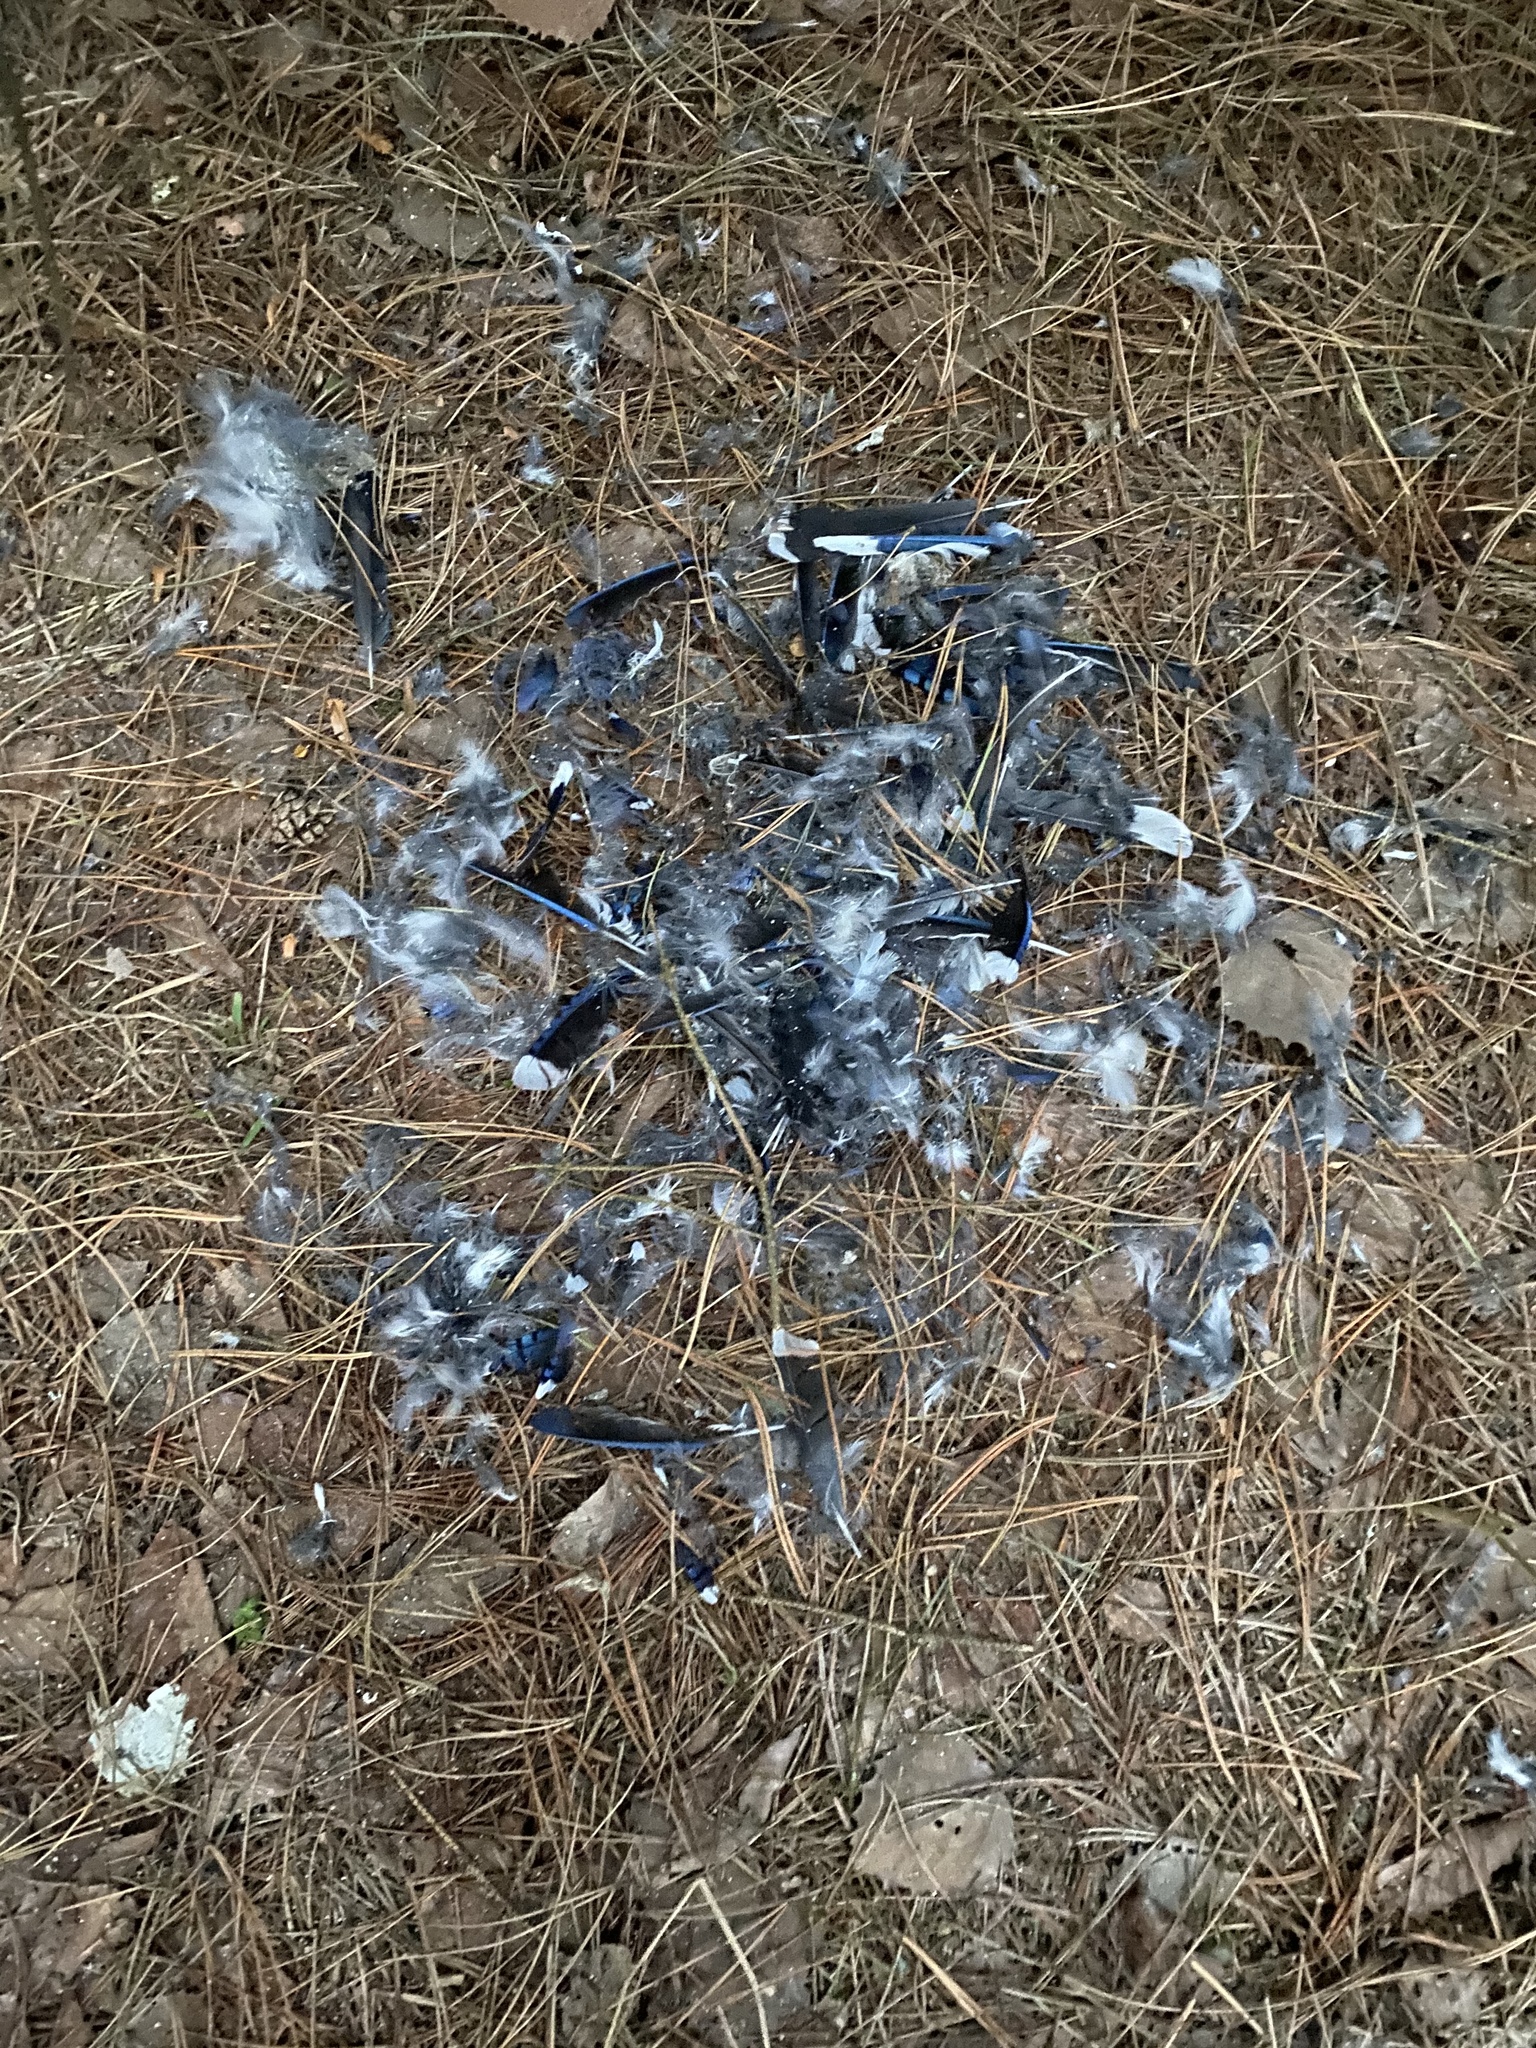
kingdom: Animalia
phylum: Chordata
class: Aves
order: Passeriformes
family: Corvidae
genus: Cyanocitta
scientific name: Cyanocitta cristata
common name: Blue jay
